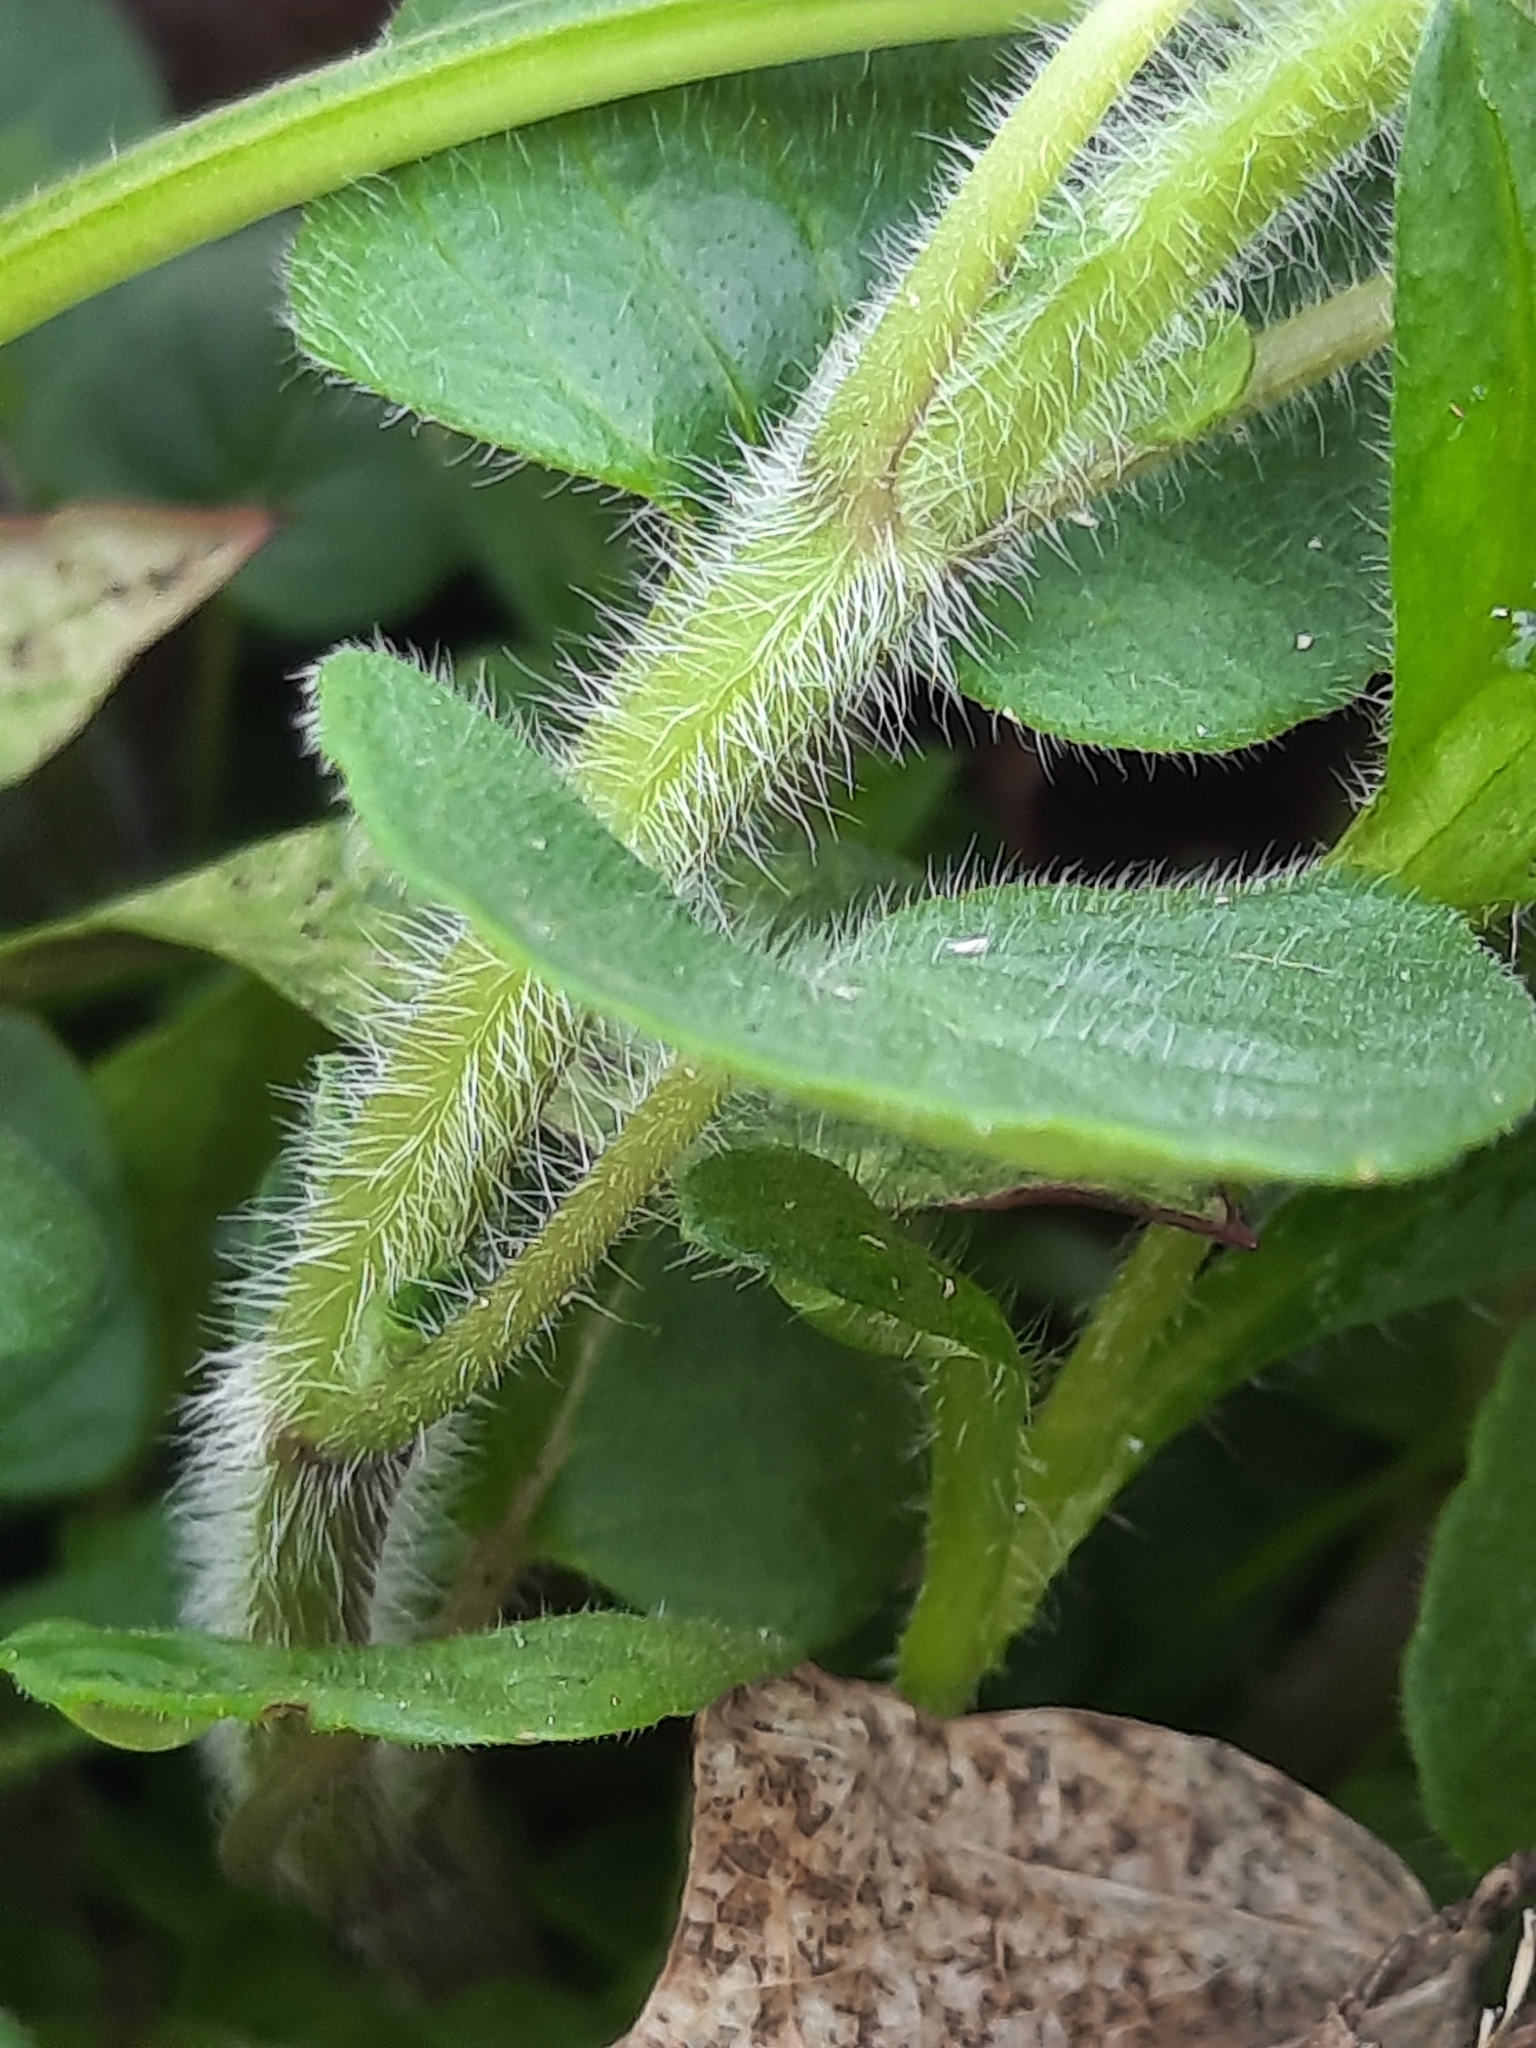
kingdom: Plantae
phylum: Tracheophyta
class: Magnoliopsida
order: Lamiales
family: Lamiaceae
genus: Clinopodium
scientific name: Clinopodium vulgare
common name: Wild basil
